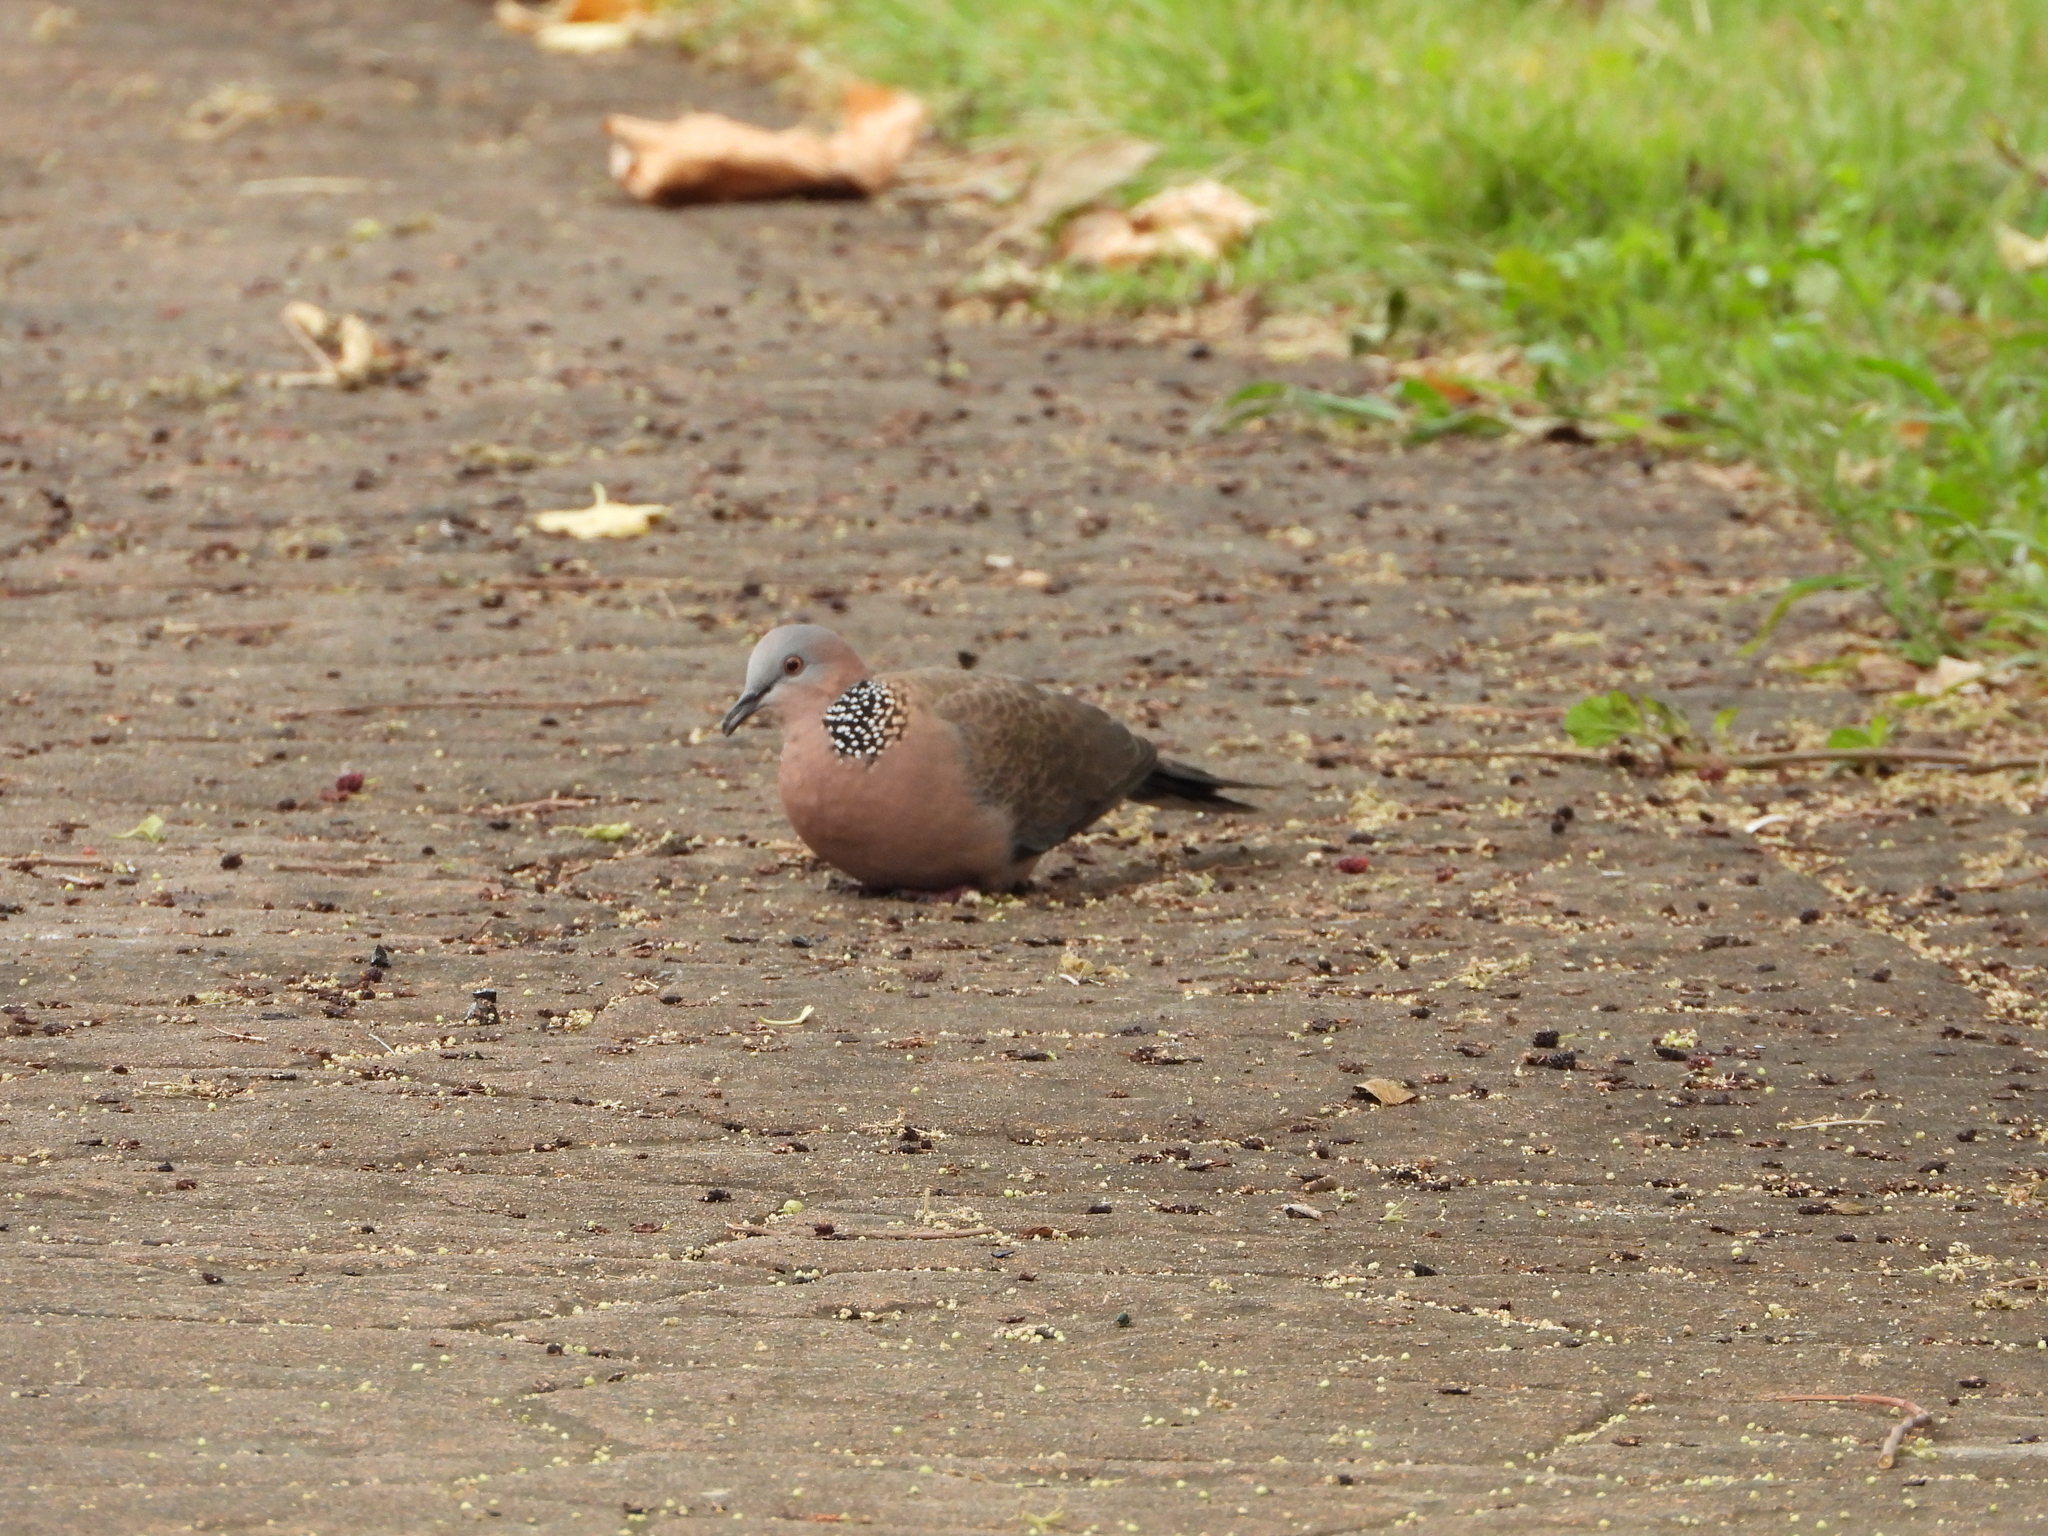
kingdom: Animalia
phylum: Chordata
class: Aves
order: Columbiformes
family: Columbidae
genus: Spilopelia
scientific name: Spilopelia chinensis
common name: Spotted dove
